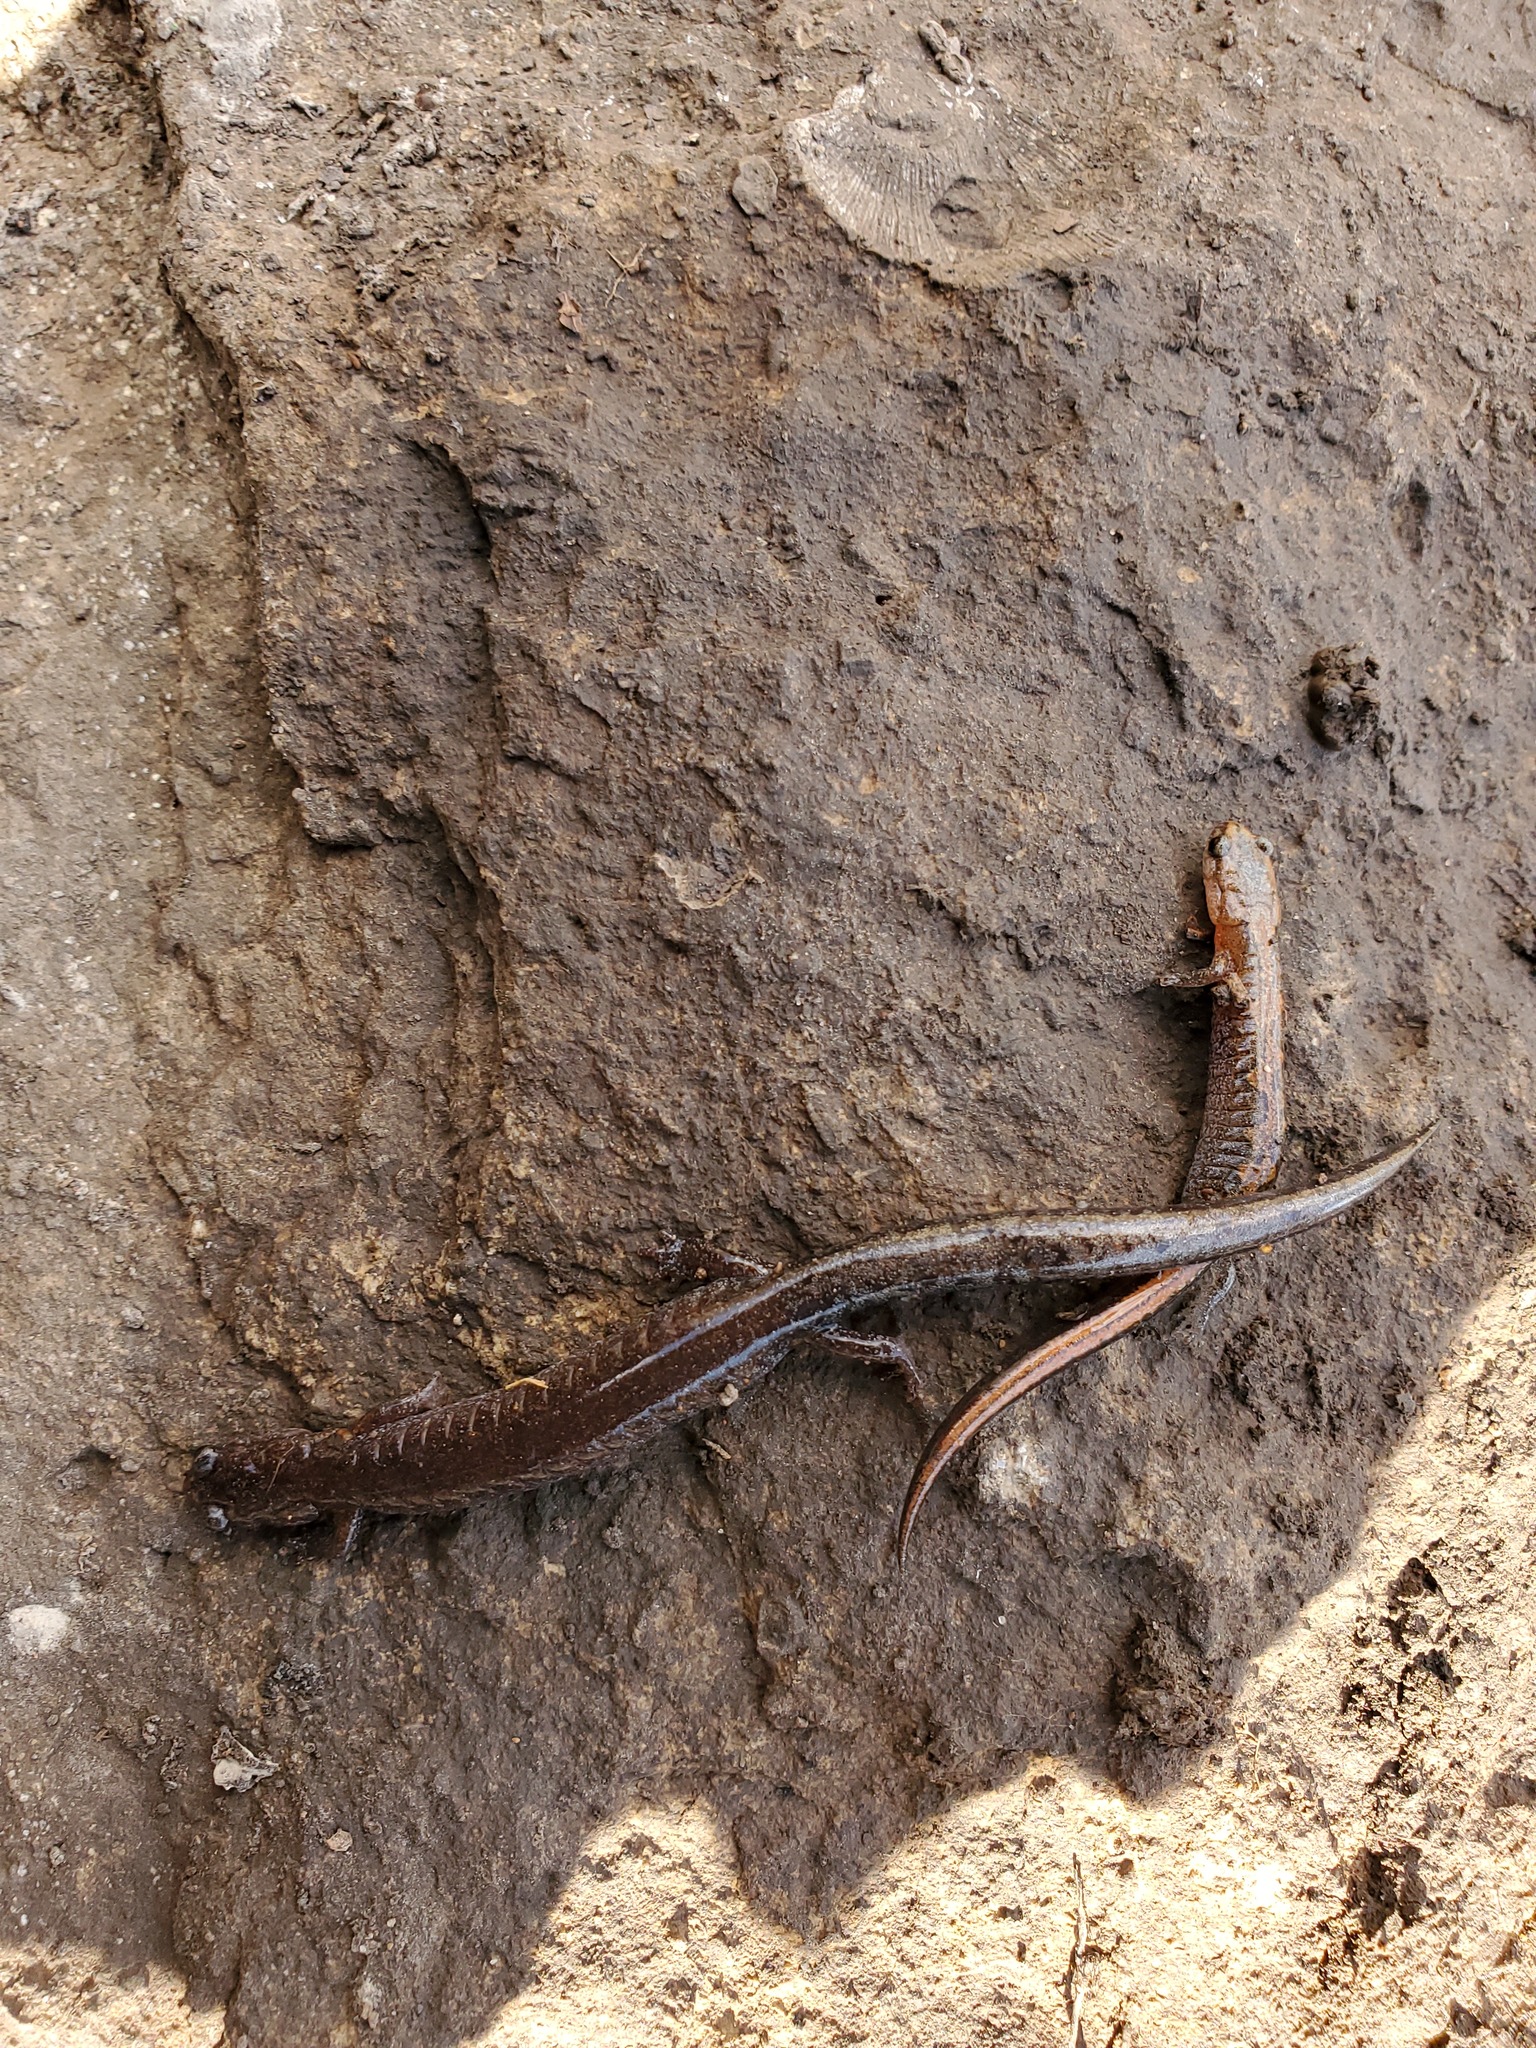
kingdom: Animalia
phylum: Chordata
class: Amphibia
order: Caudata
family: Plethodontidae
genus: Plethodon
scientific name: Plethodon dorsalis
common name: Northern zigzag salamander
